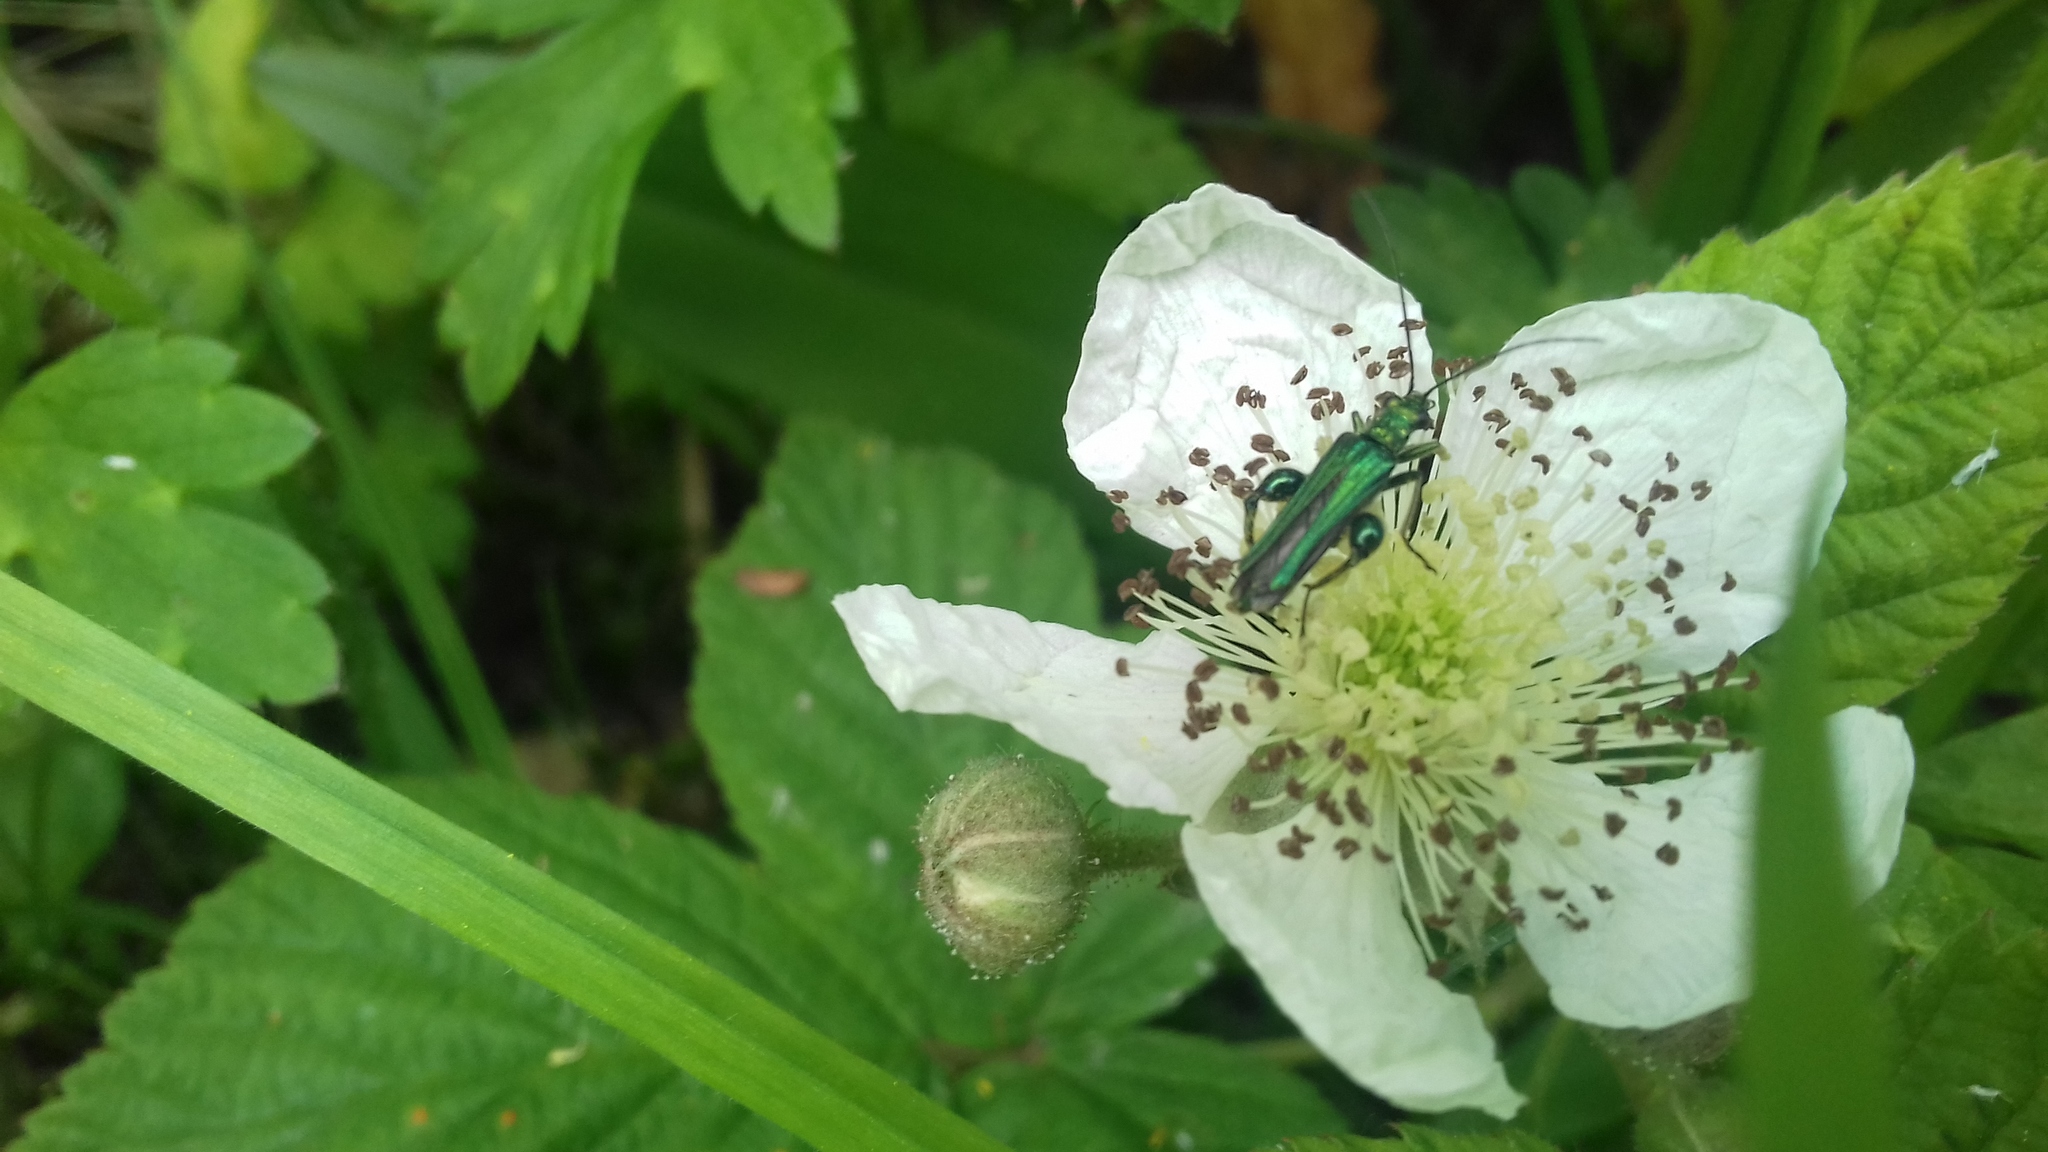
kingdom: Animalia
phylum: Arthropoda
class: Insecta
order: Coleoptera
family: Oedemeridae
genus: Oedemera
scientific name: Oedemera nobilis
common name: Swollen-thighed beetle
